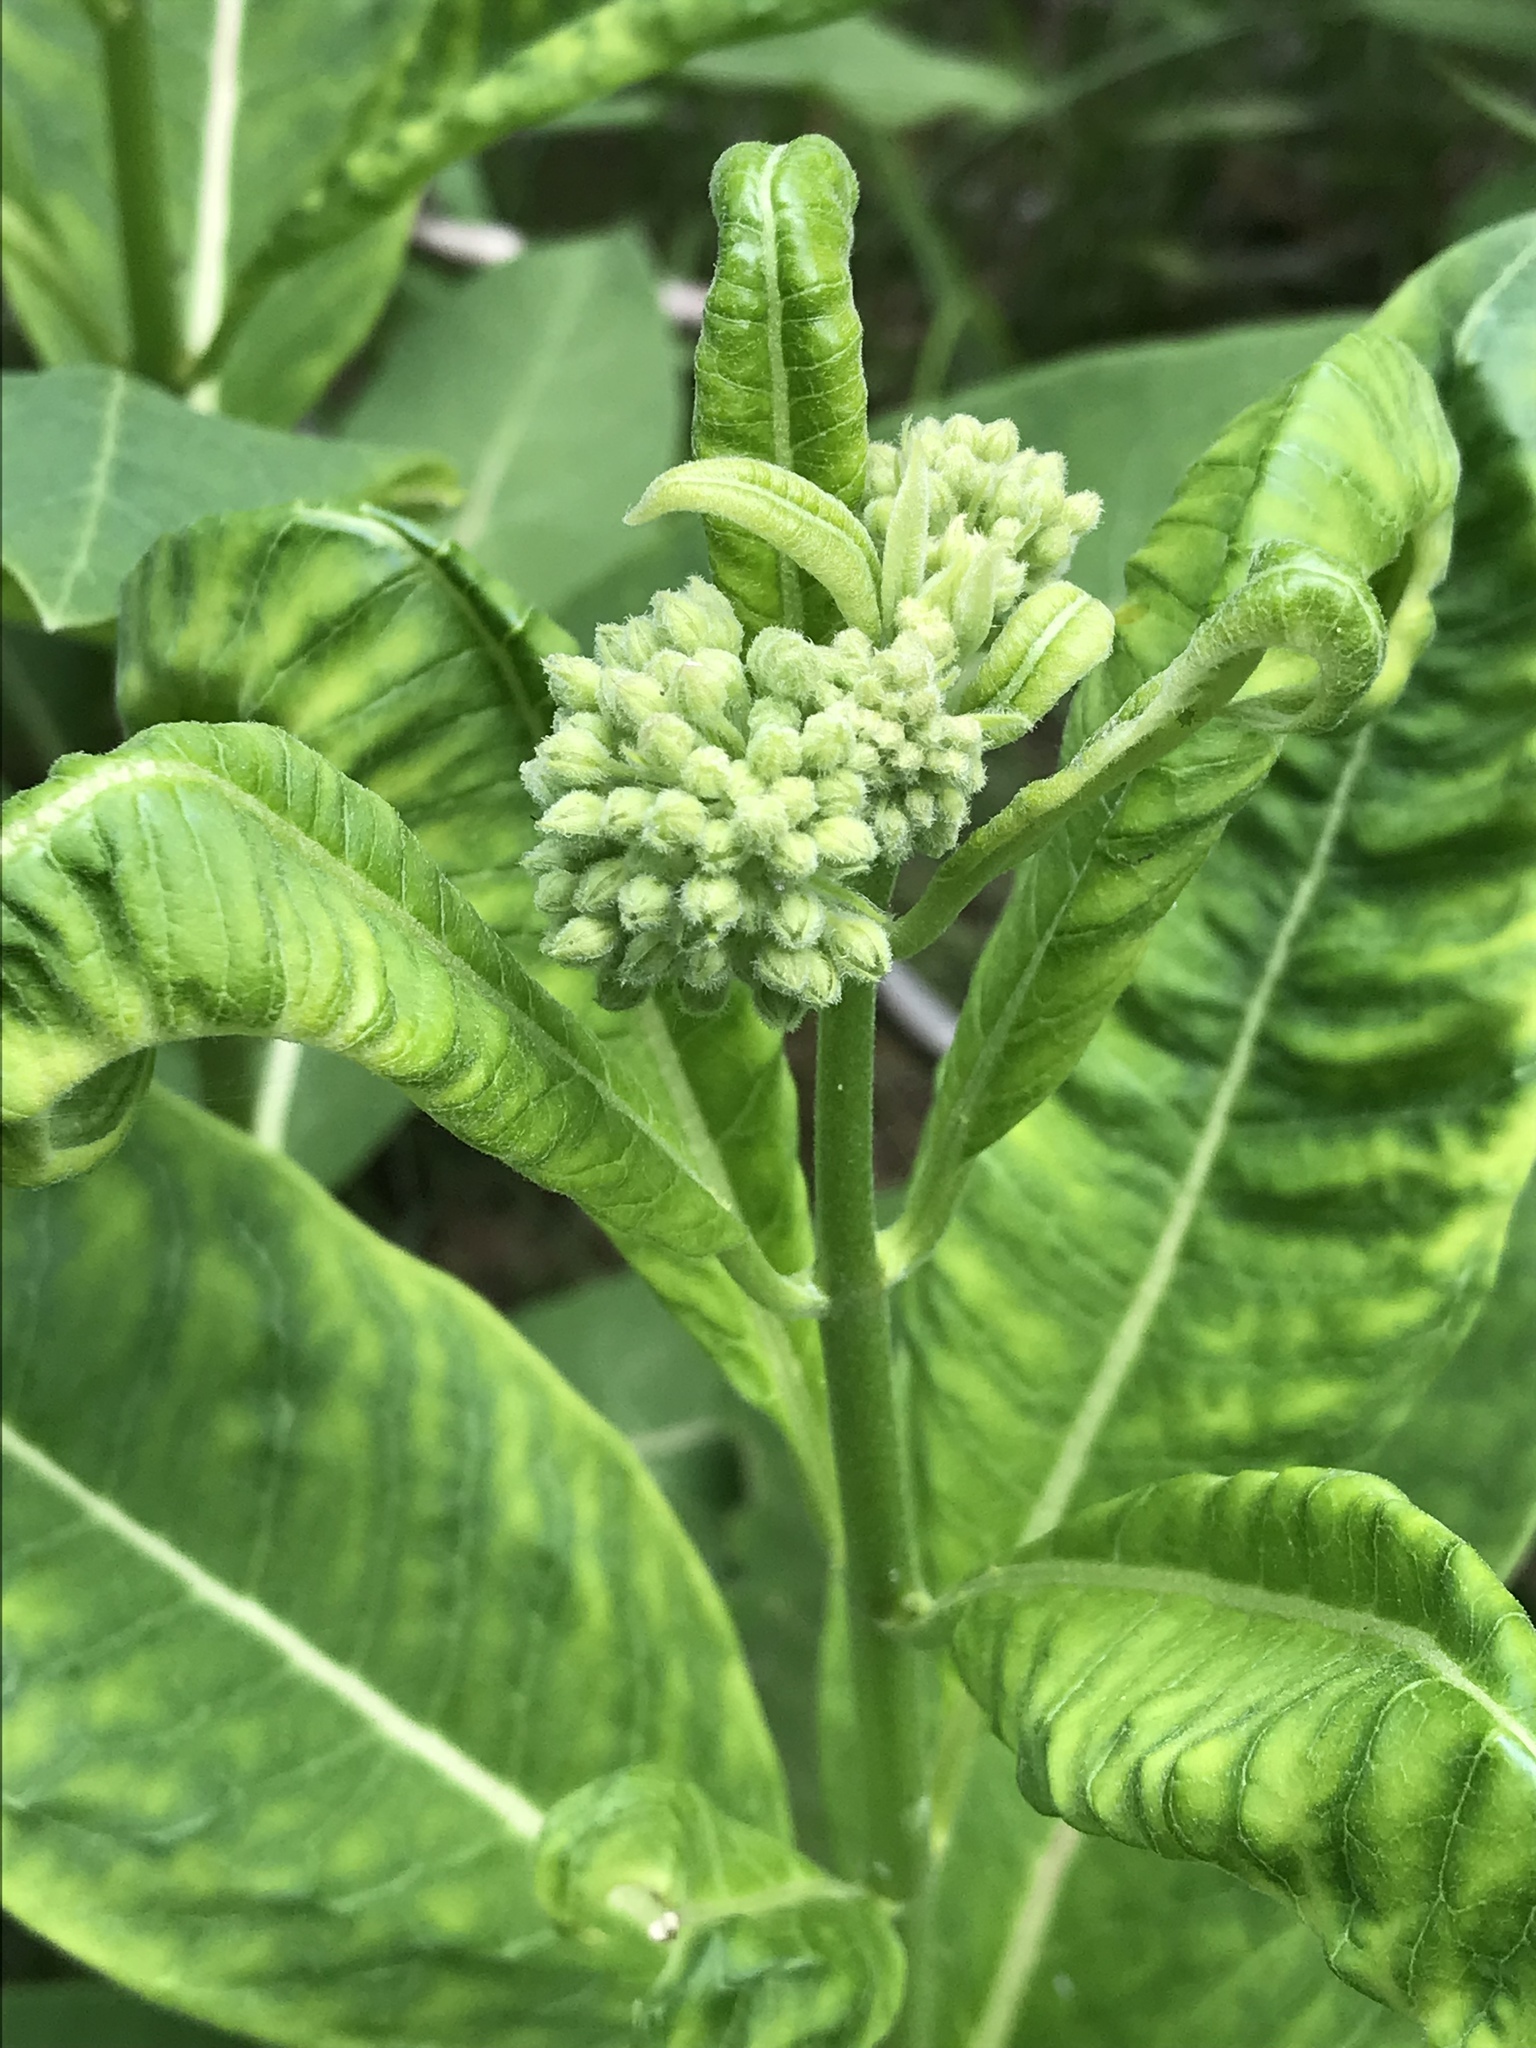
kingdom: Plantae
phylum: Tracheophyta
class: Magnoliopsida
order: Gentianales
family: Apocynaceae
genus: Asclepias
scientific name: Asclepias syriaca
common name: Common milkweed
